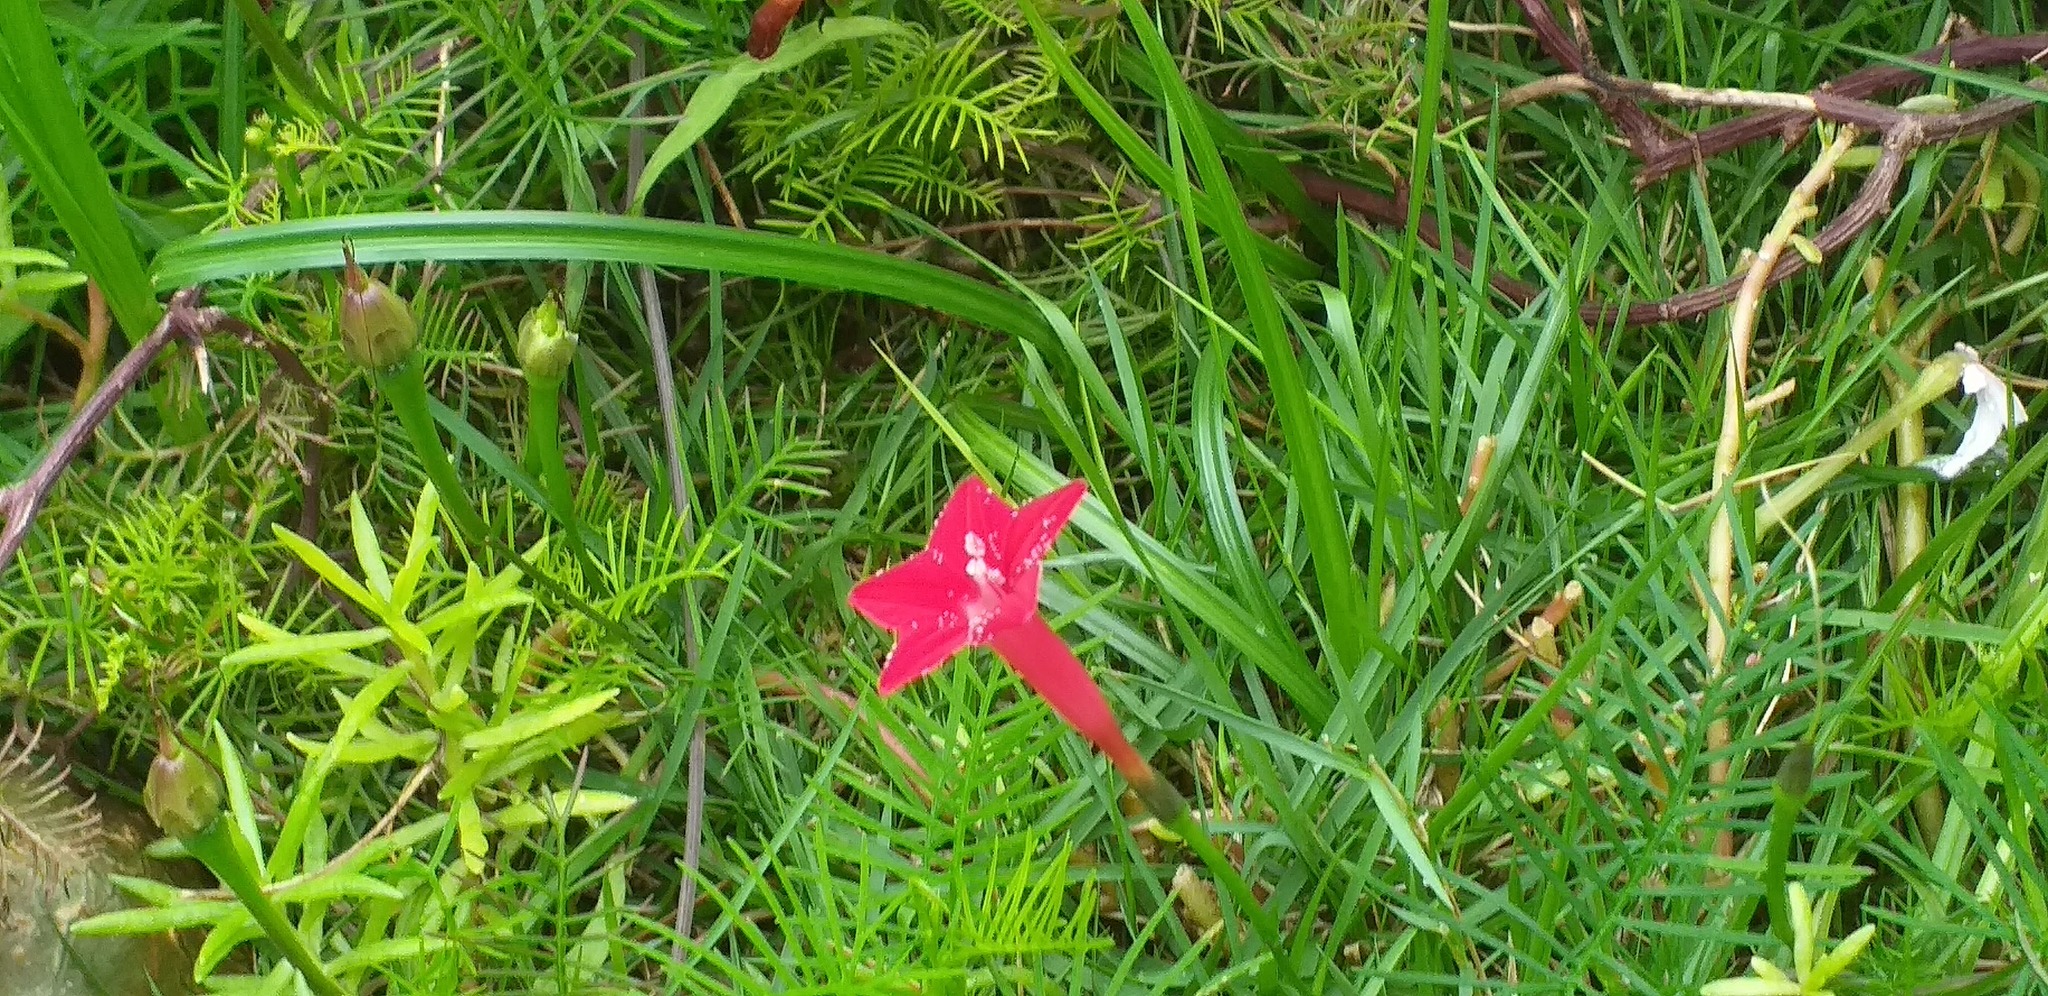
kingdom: Plantae
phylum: Tracheophyta
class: Magnoliopsida
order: Solanales
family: Convolvulaceae
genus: Ipomoea
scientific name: Ipomoea quamoclit
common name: Cypress vine
